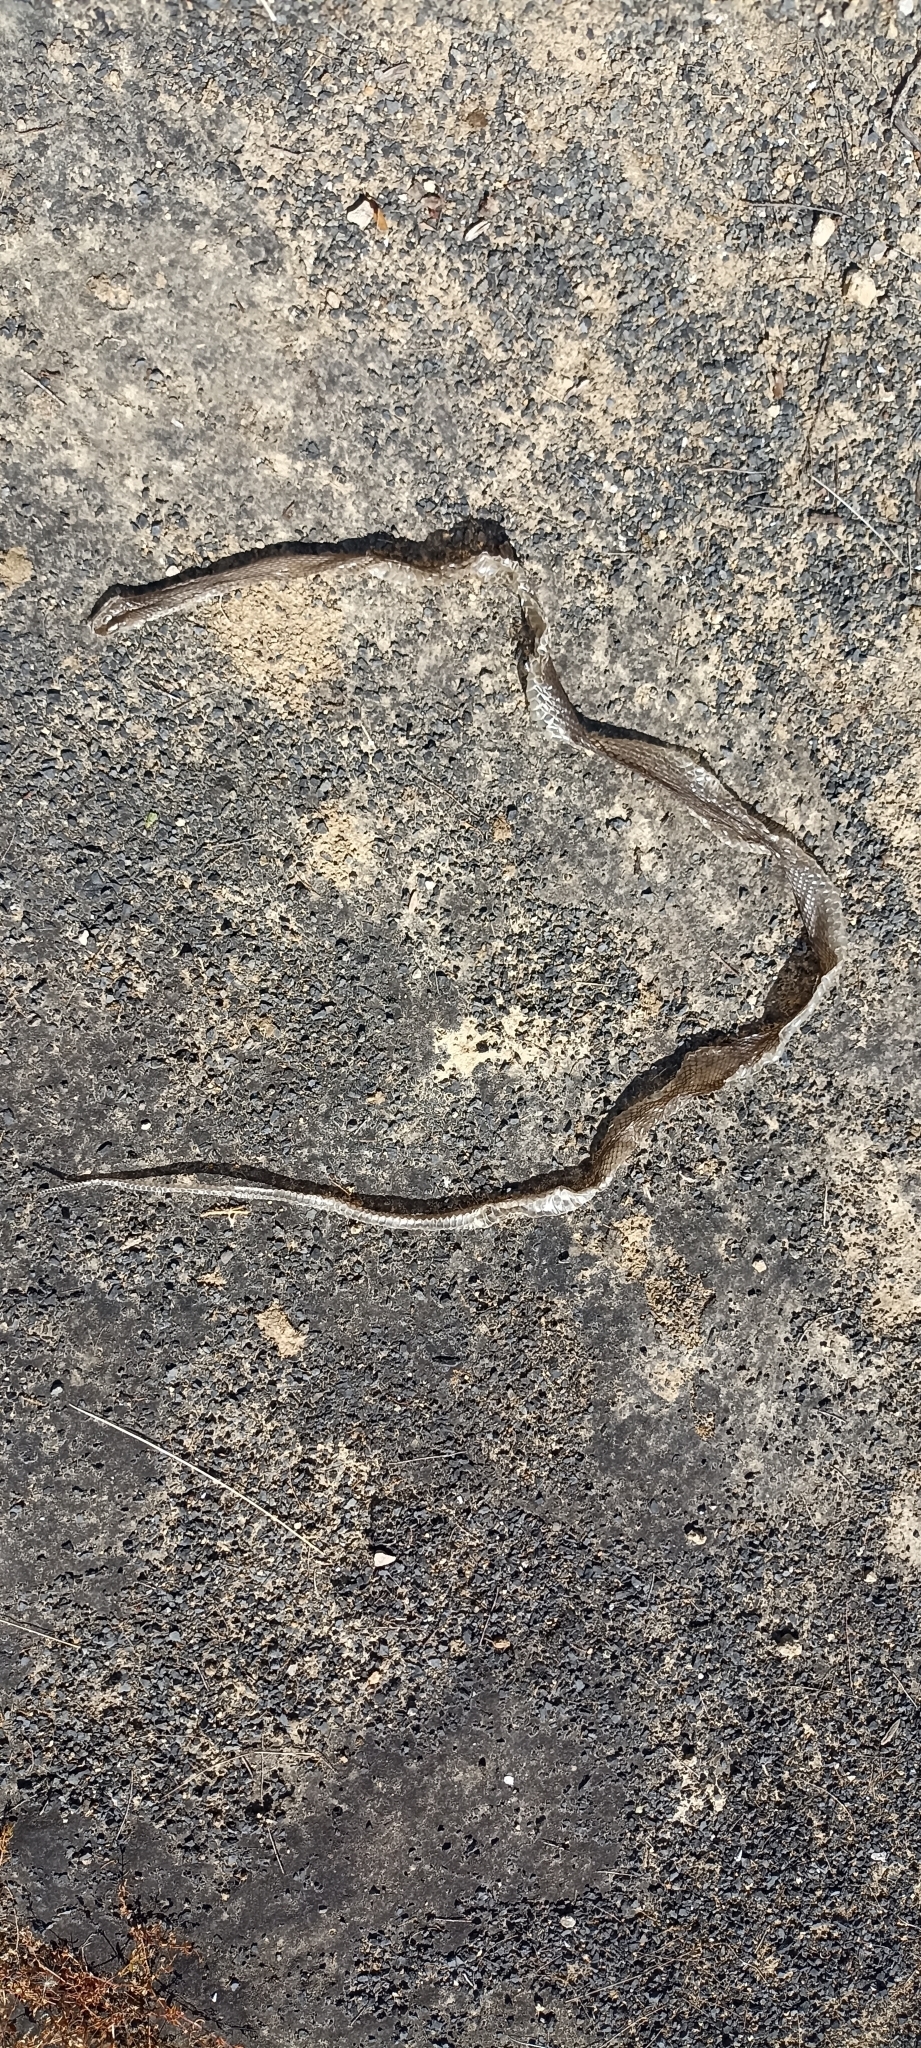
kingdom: Animalia
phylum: Chordata
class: Squamata
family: Psammophiidae
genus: Malpolon
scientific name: Malpolon monspessulanus
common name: Montpellier snake
